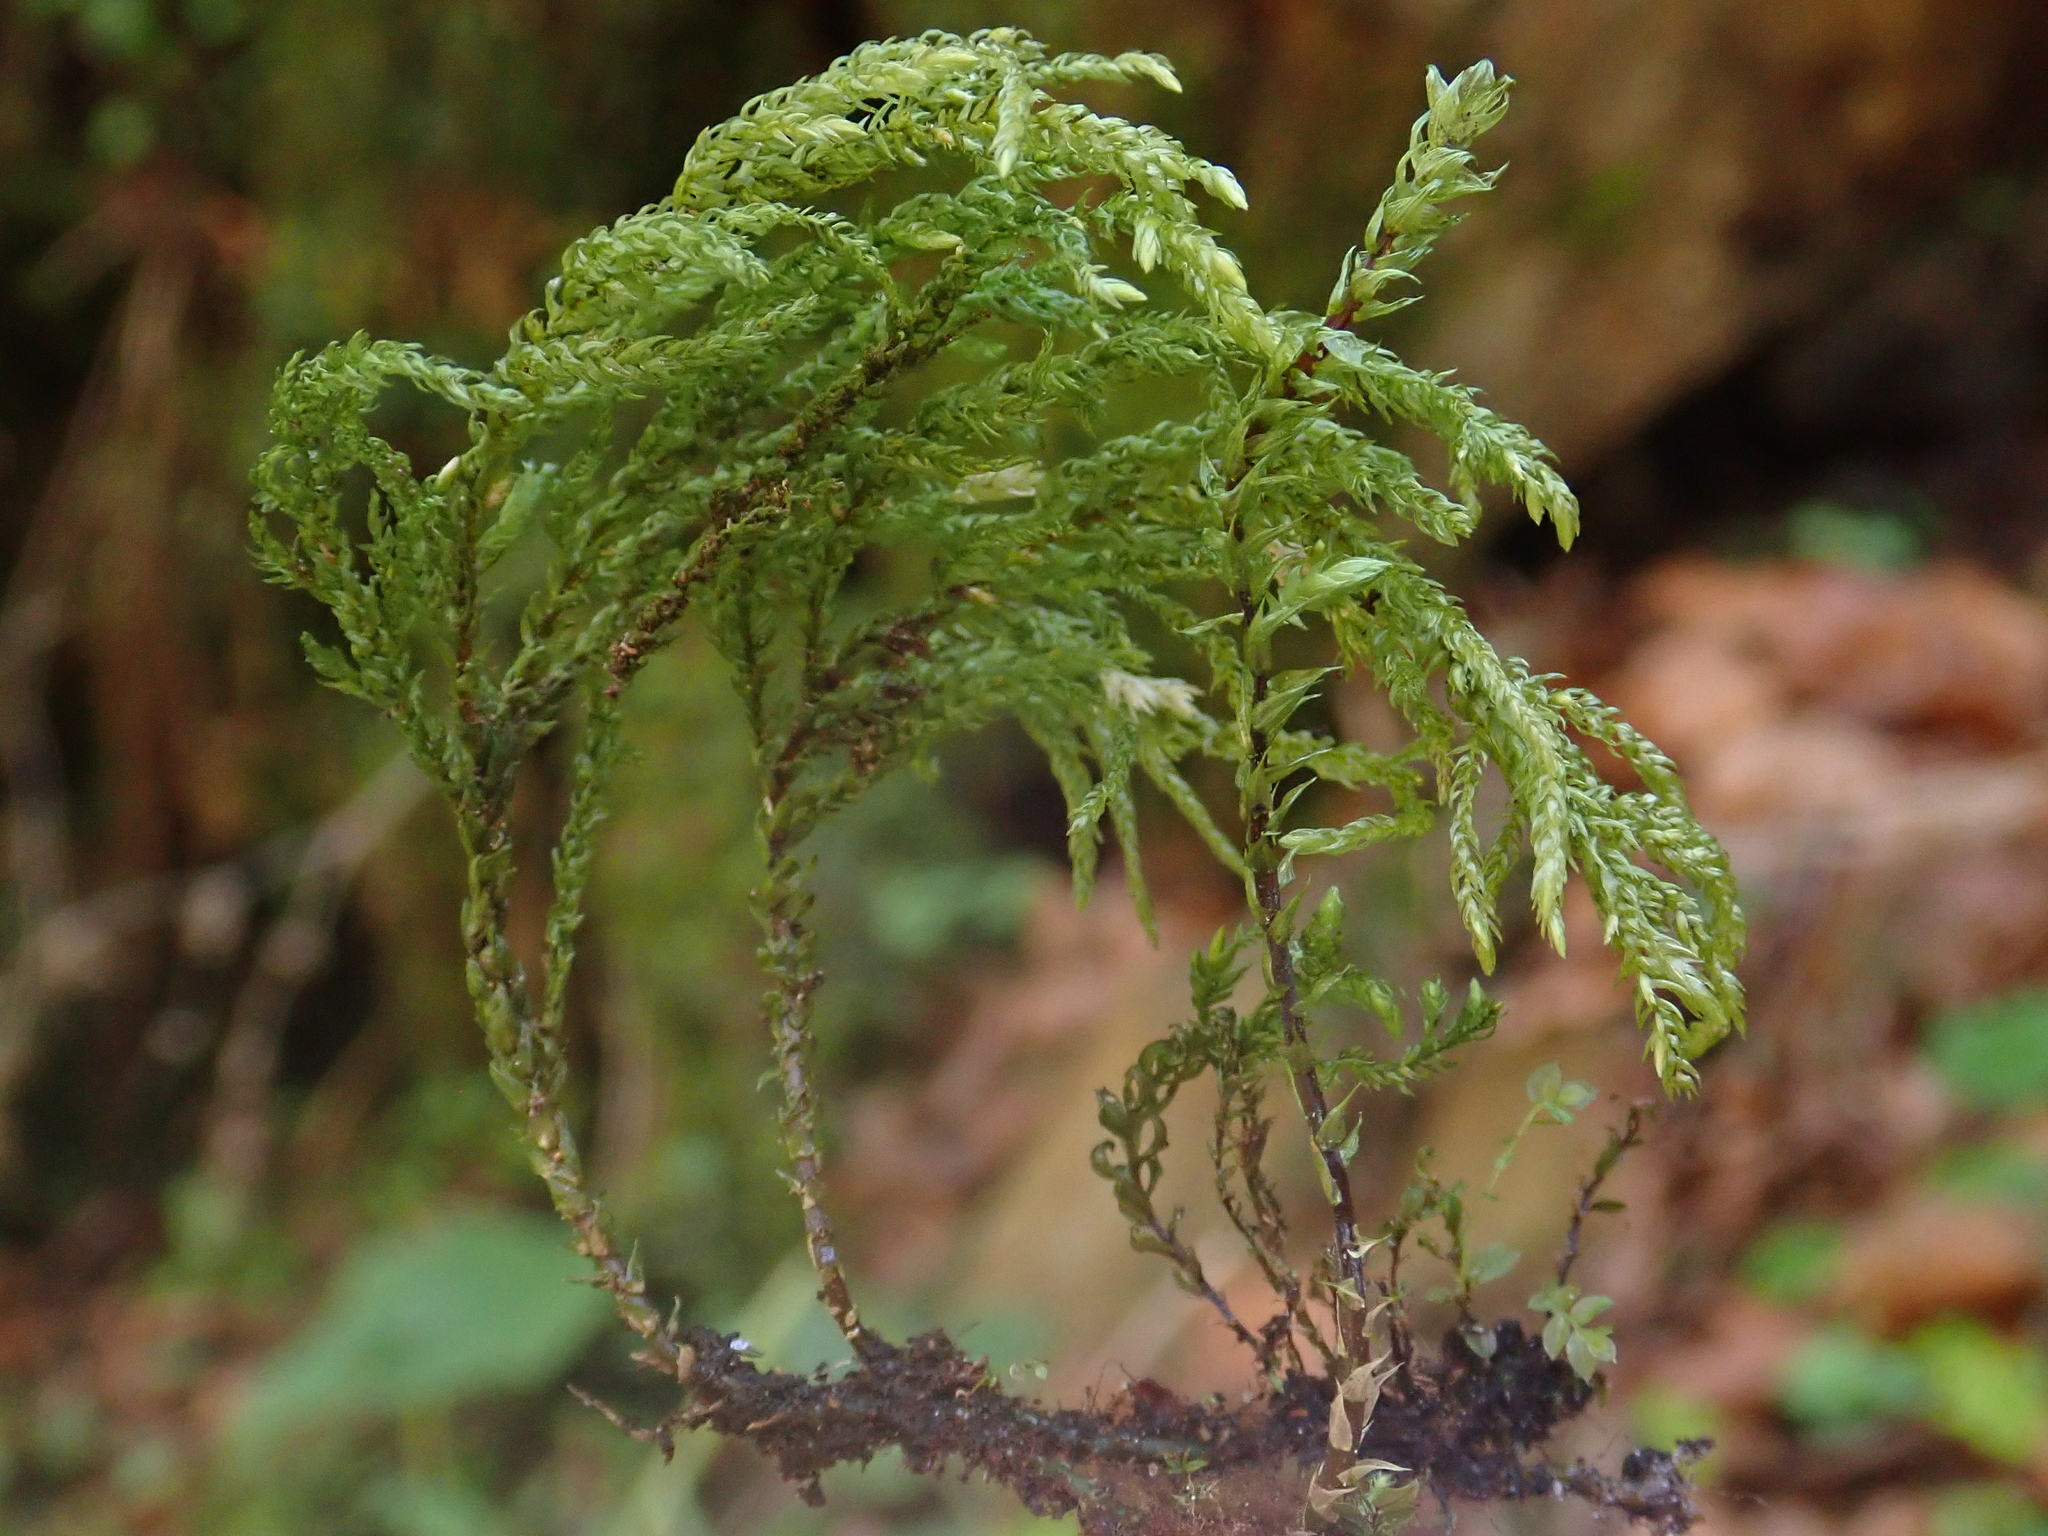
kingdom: Plantae
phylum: Bryophyta
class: Bryopsida
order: Hypnales
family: Neckeraceae
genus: Thamnobryum
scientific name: Thamnobryum alopecurum
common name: Fox-tail feather-moss
